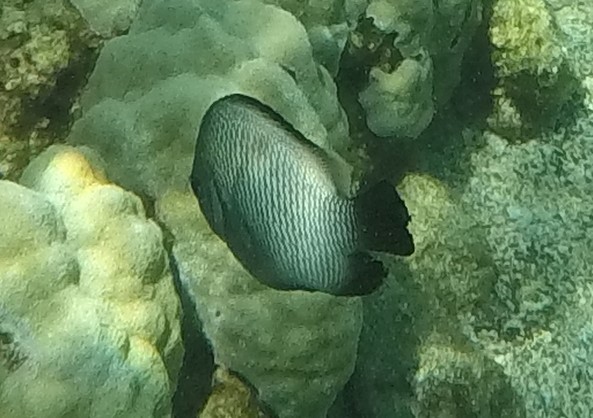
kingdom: Animalia
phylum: Chordata
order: Perciformes
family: Pomacentridae
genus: Dascyllus
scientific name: Dascyllus albisella
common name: Hawaiian dascyllus
